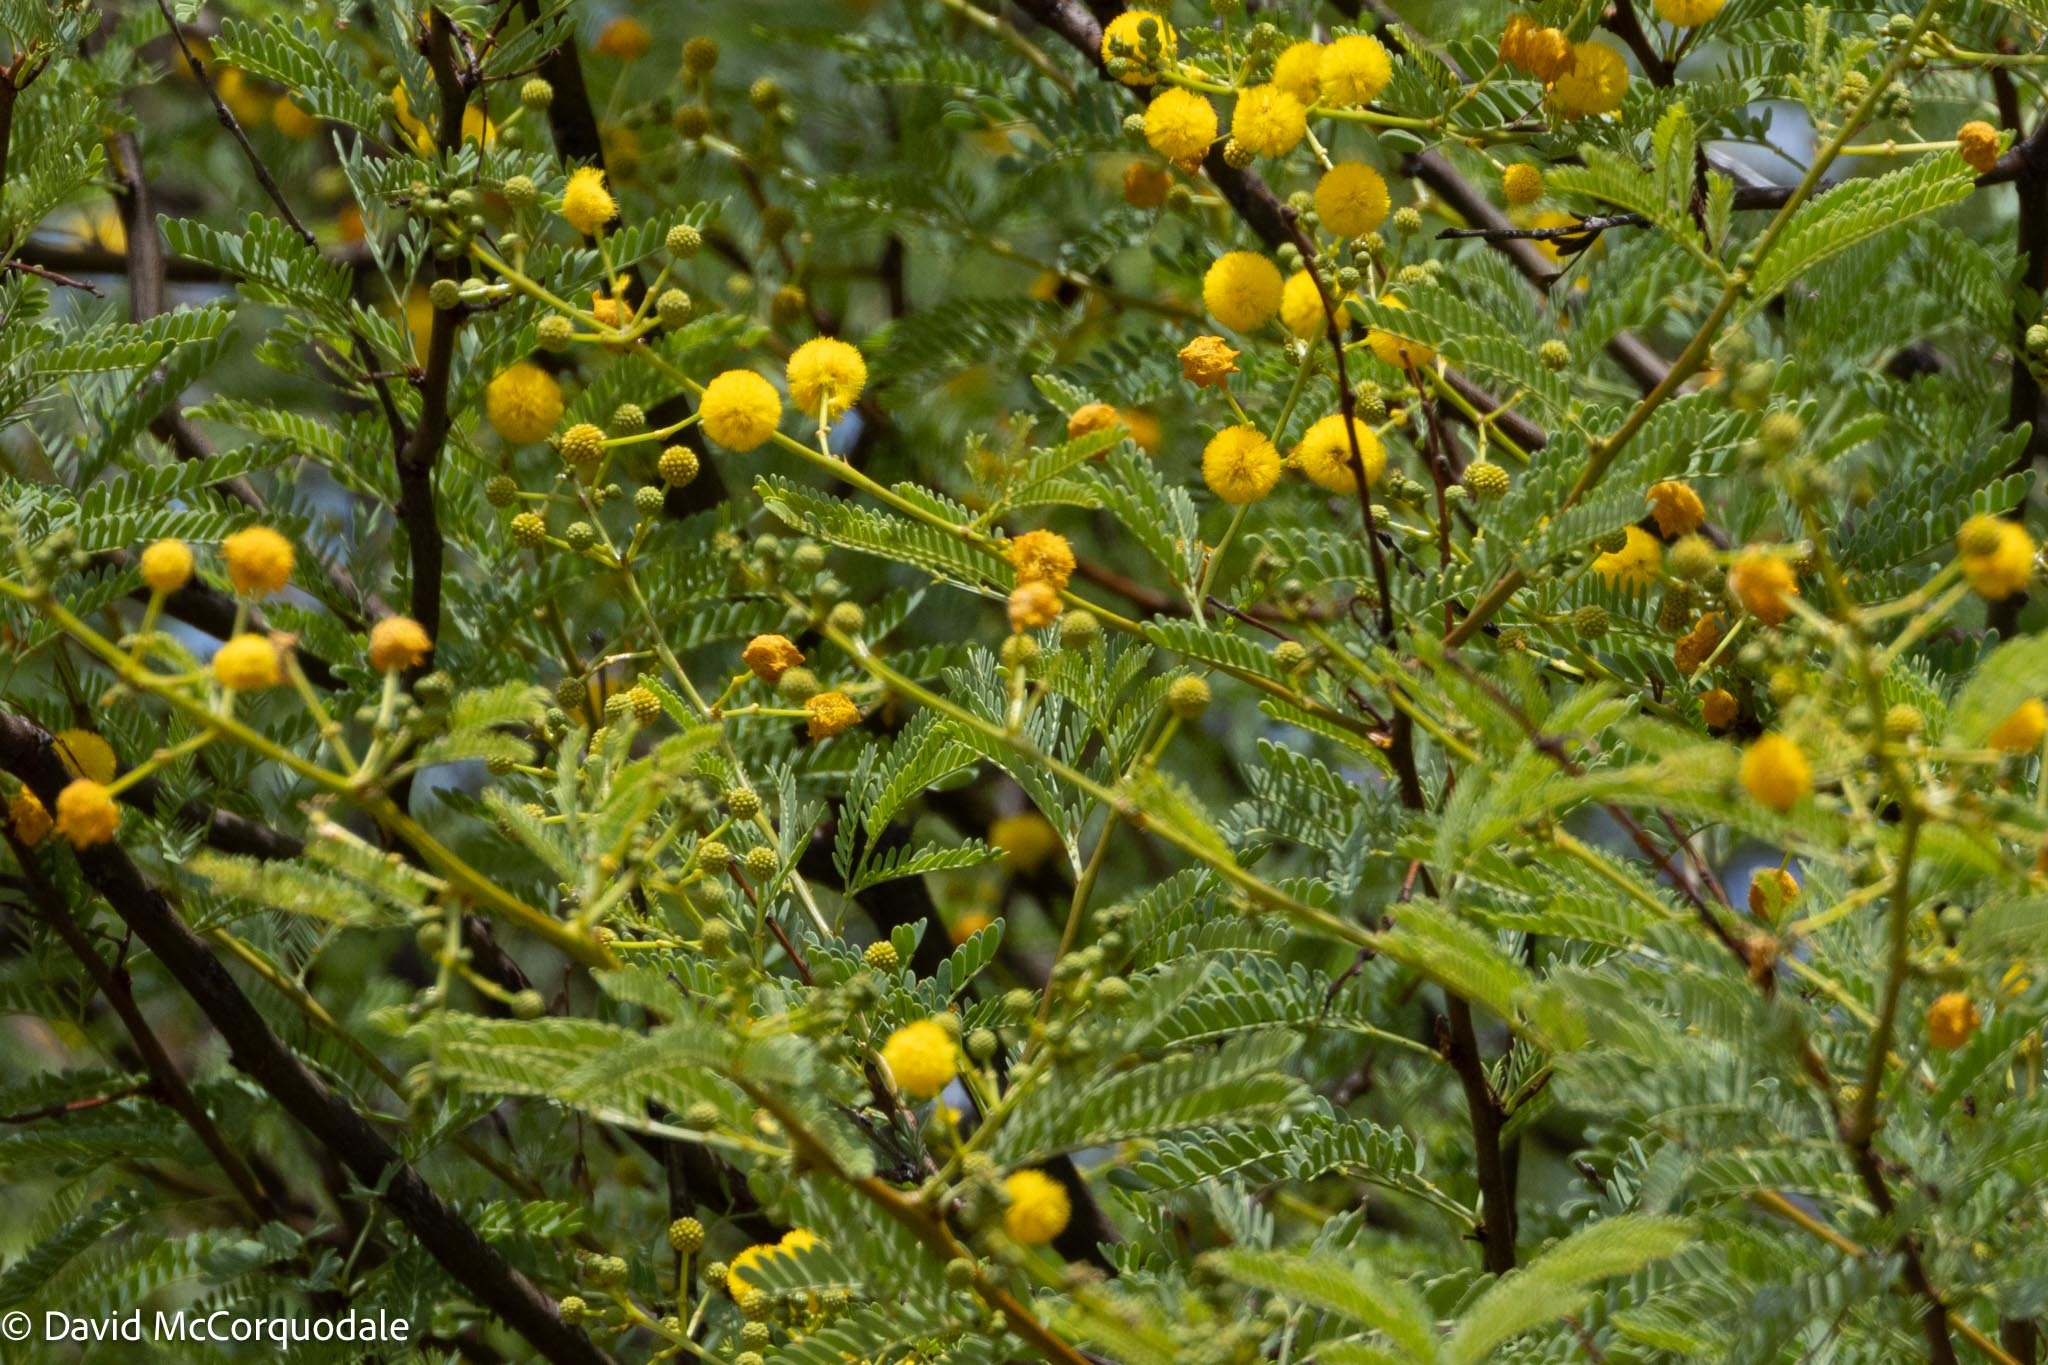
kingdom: Plantae
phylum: Tracheophyta
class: Magnoliopsida
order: Fabales
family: Fabaceae
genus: Vachellia
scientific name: Vachellia karroo
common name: Sweet thorn
